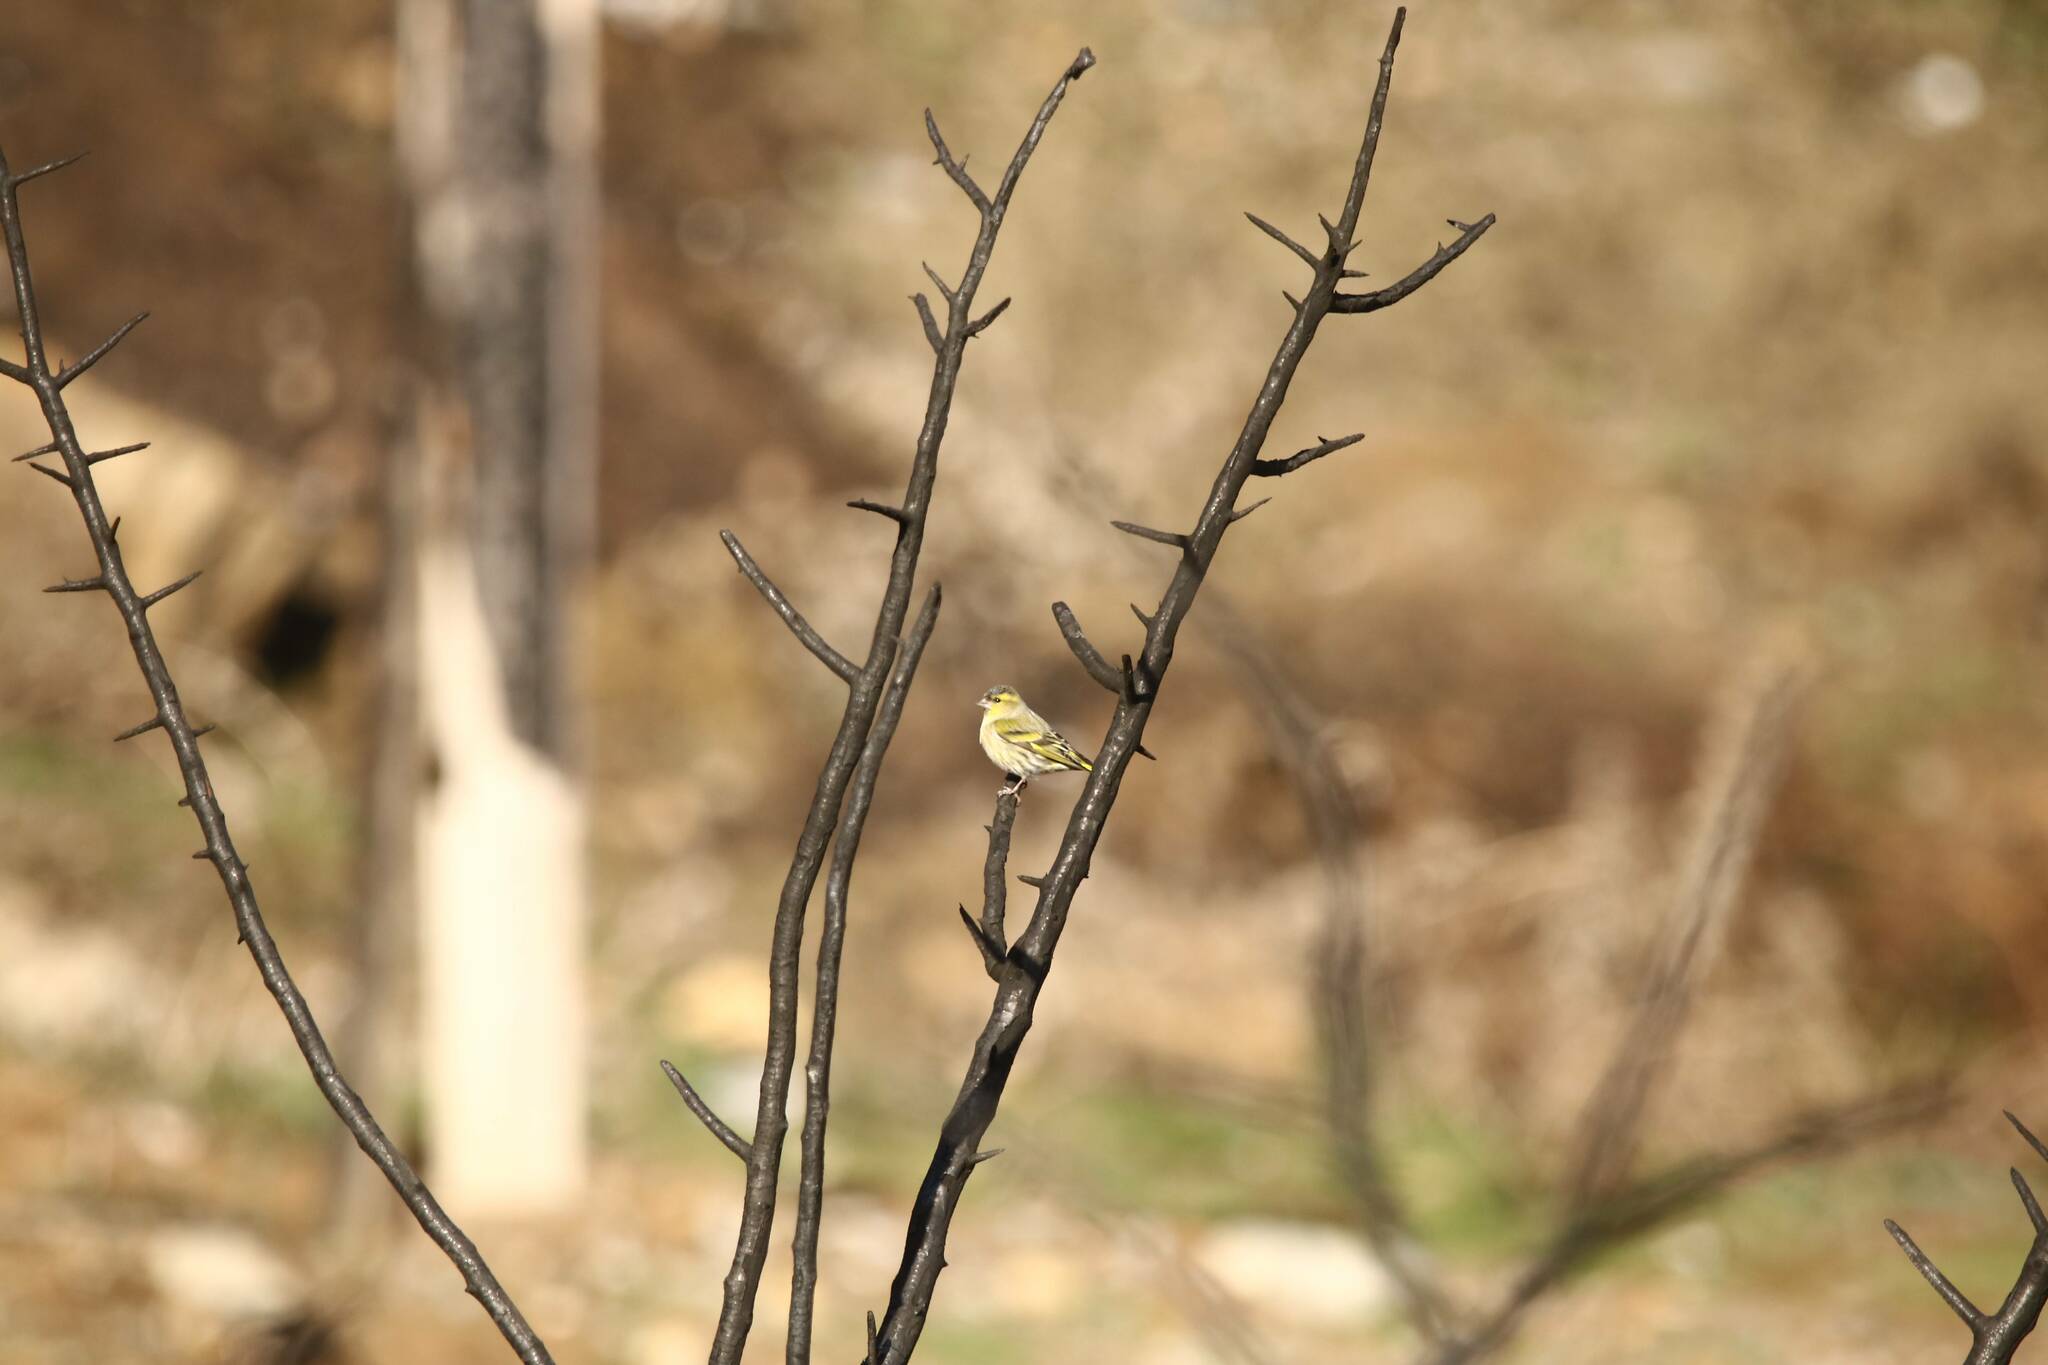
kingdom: Animalia
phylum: Chordata
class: Aves
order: Passeriformes
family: Fringillidae
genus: Spinus
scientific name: Spinus spinus
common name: Eurasian siskin
